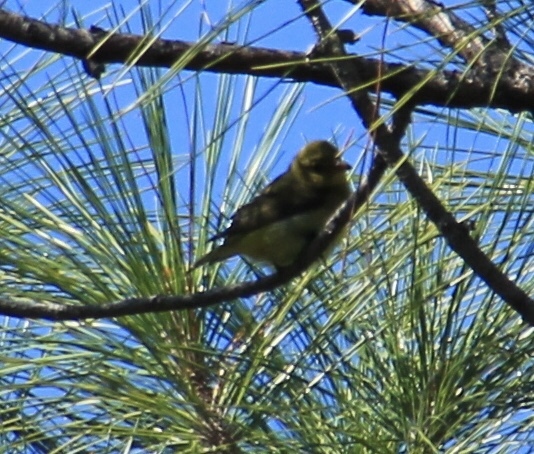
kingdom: Animalia
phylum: Chordata
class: Aves
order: Passeriformes
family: Cardinalidae
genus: Piranga
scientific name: Piranga olivacea
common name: Scarlet tanager
